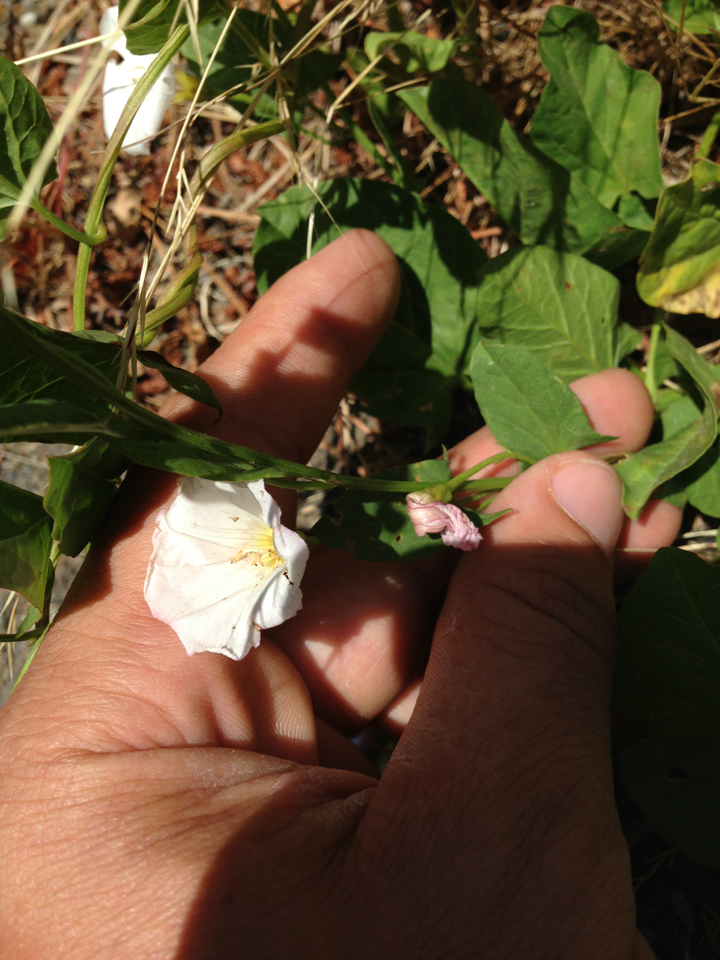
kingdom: Plantae
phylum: Tracheophyta
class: Magnoliopsida
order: Solanales
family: Convolvulaceae
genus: Convolvulus
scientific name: Convolvulus arvensis
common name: Field bindweed
